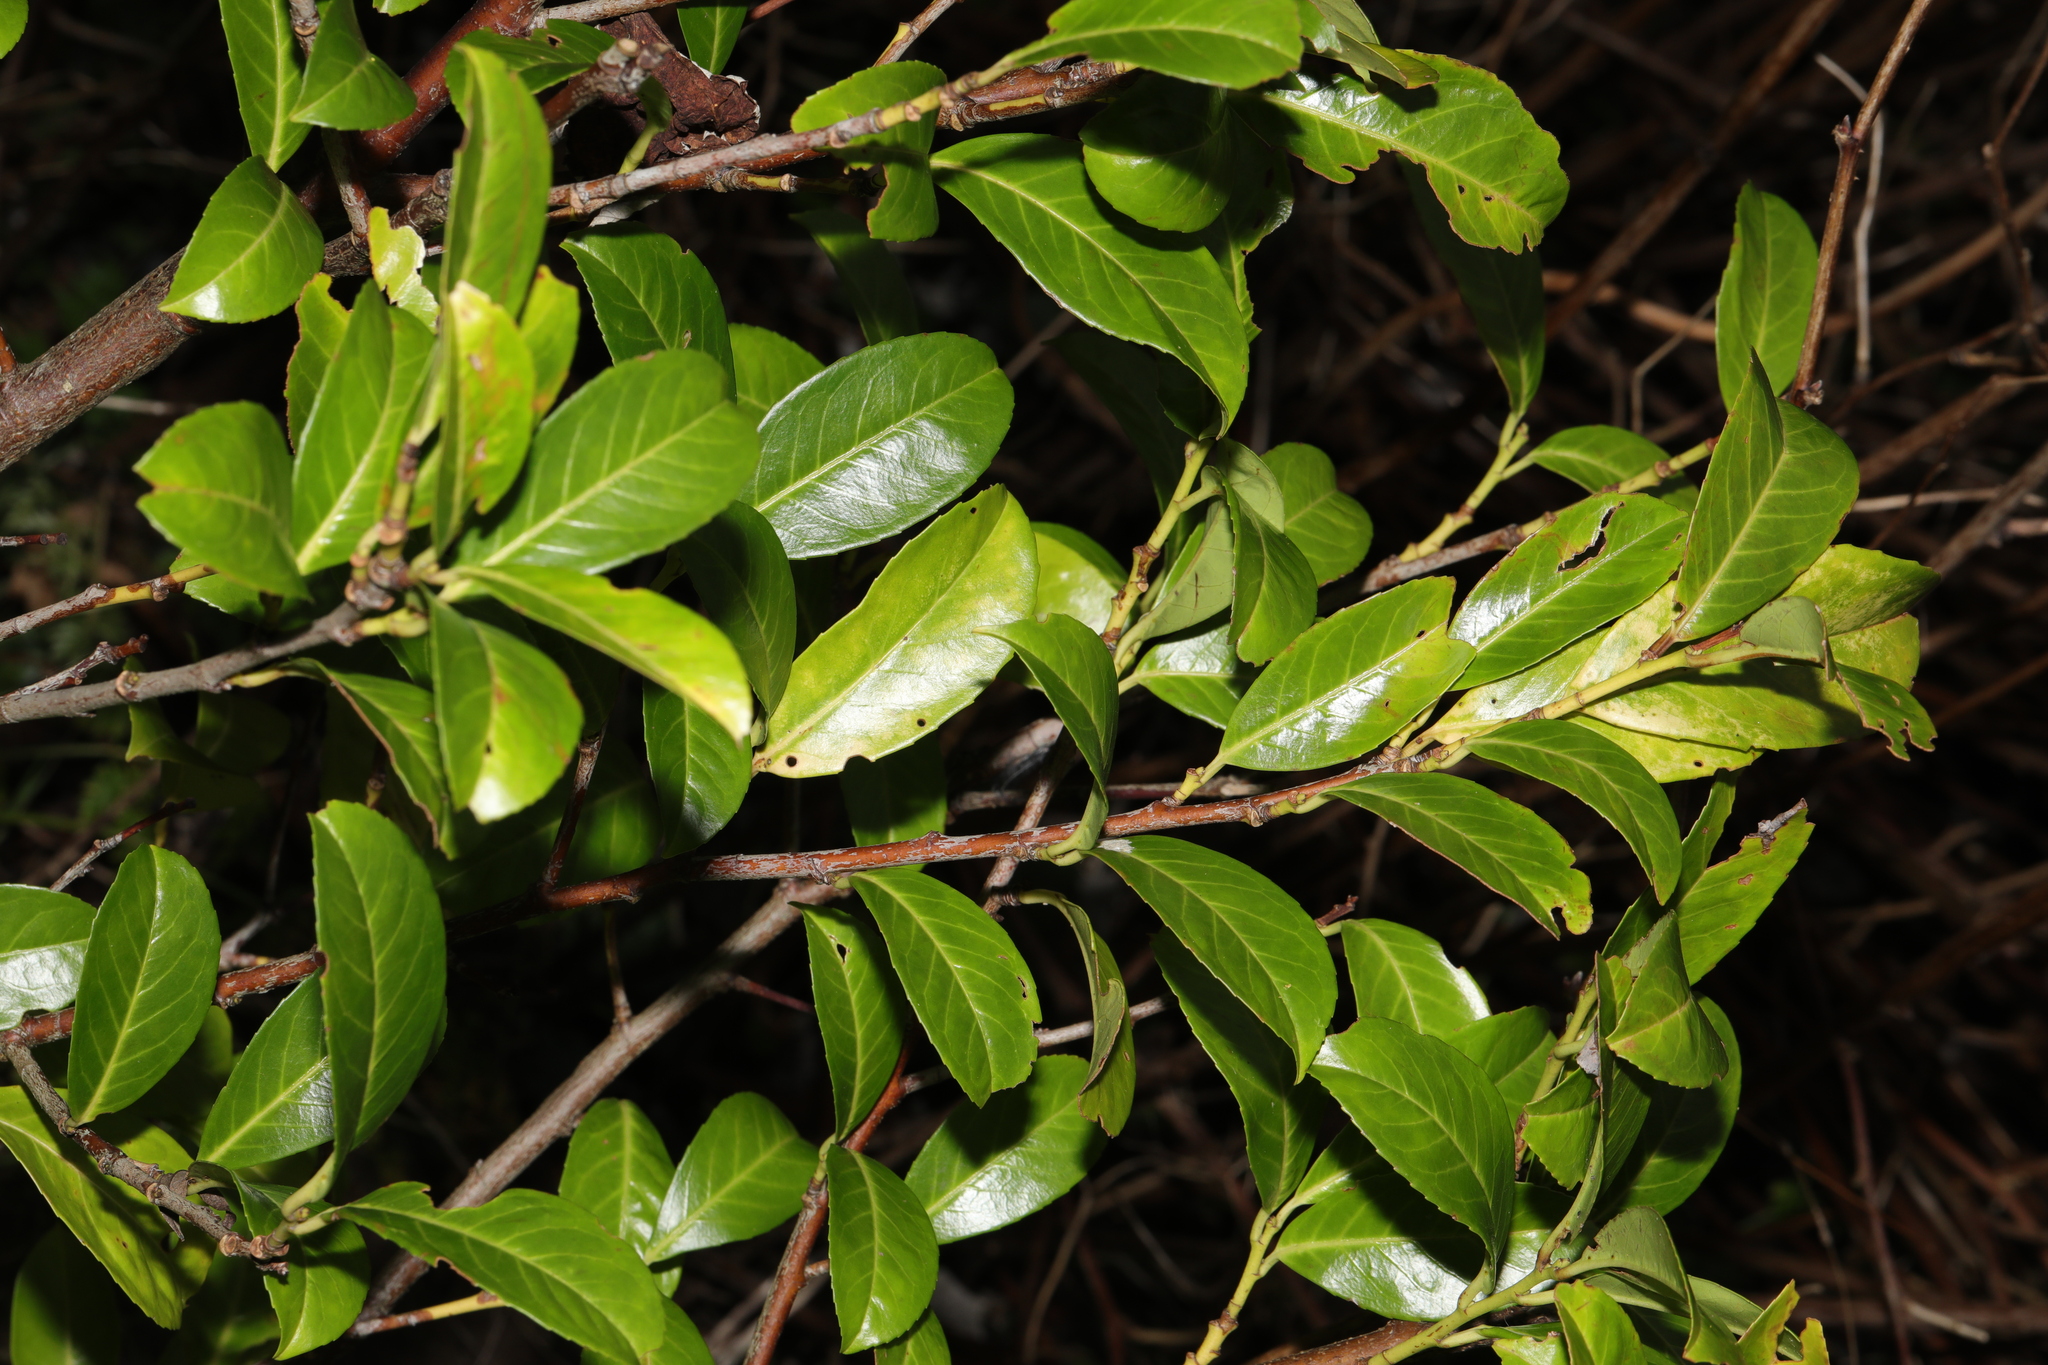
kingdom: Plantae
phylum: Tracheophyta
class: Magnoliopsida
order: Rosales
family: Rosaceae
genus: Prunus
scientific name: Prunus laurocerasus
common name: Cherry laurel
